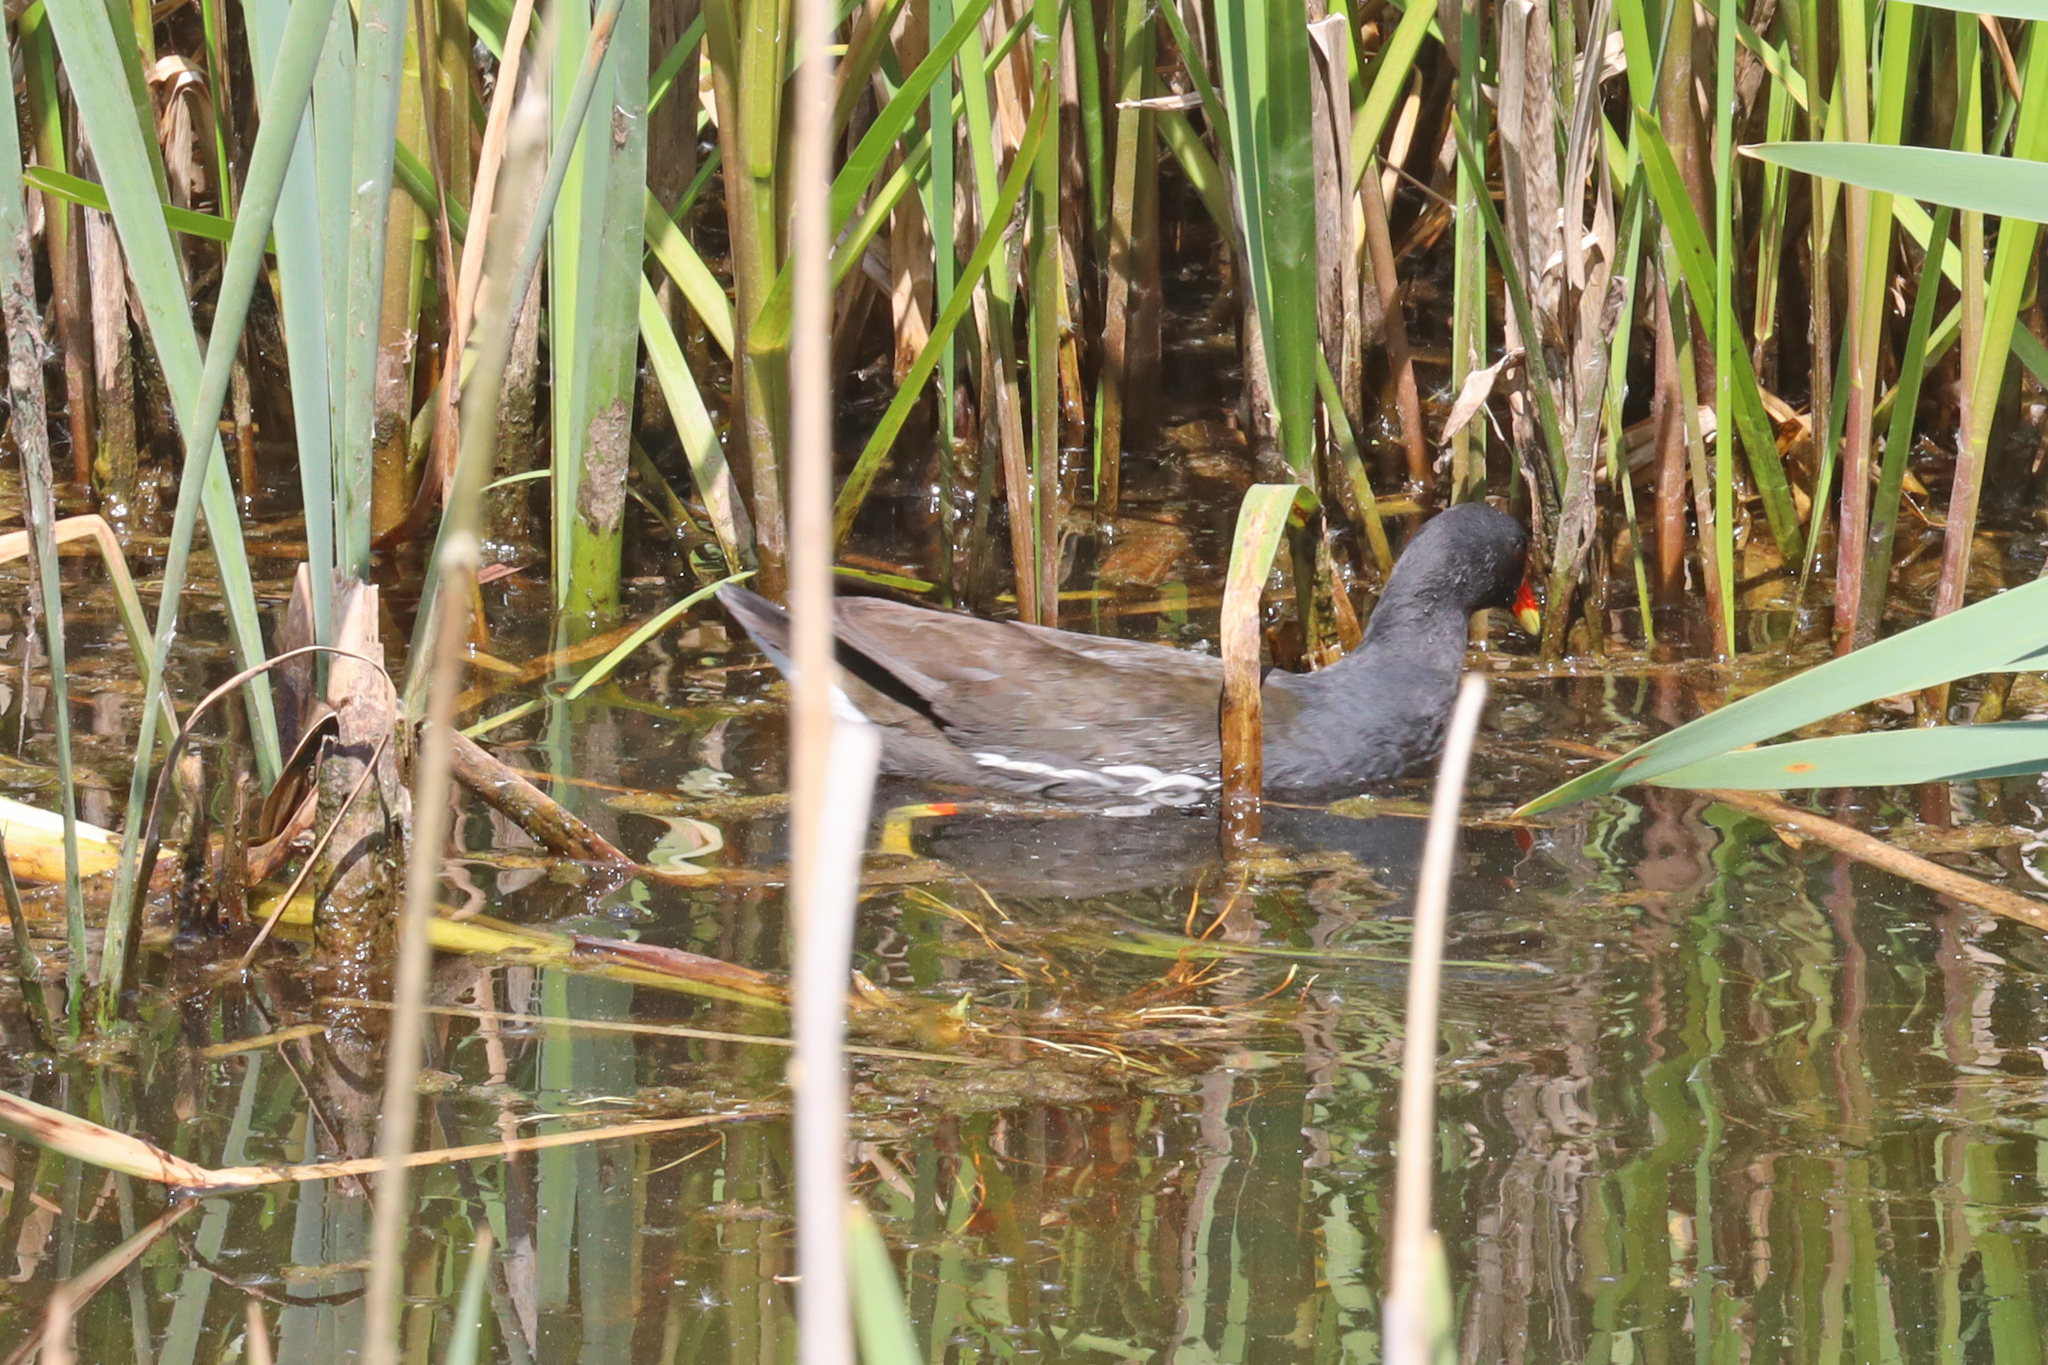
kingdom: Animalia
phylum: Chordata
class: Aves
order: Gruiformes
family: Rallidae
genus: Gallinula
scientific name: Gallinula chloropus
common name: Common moorhen
